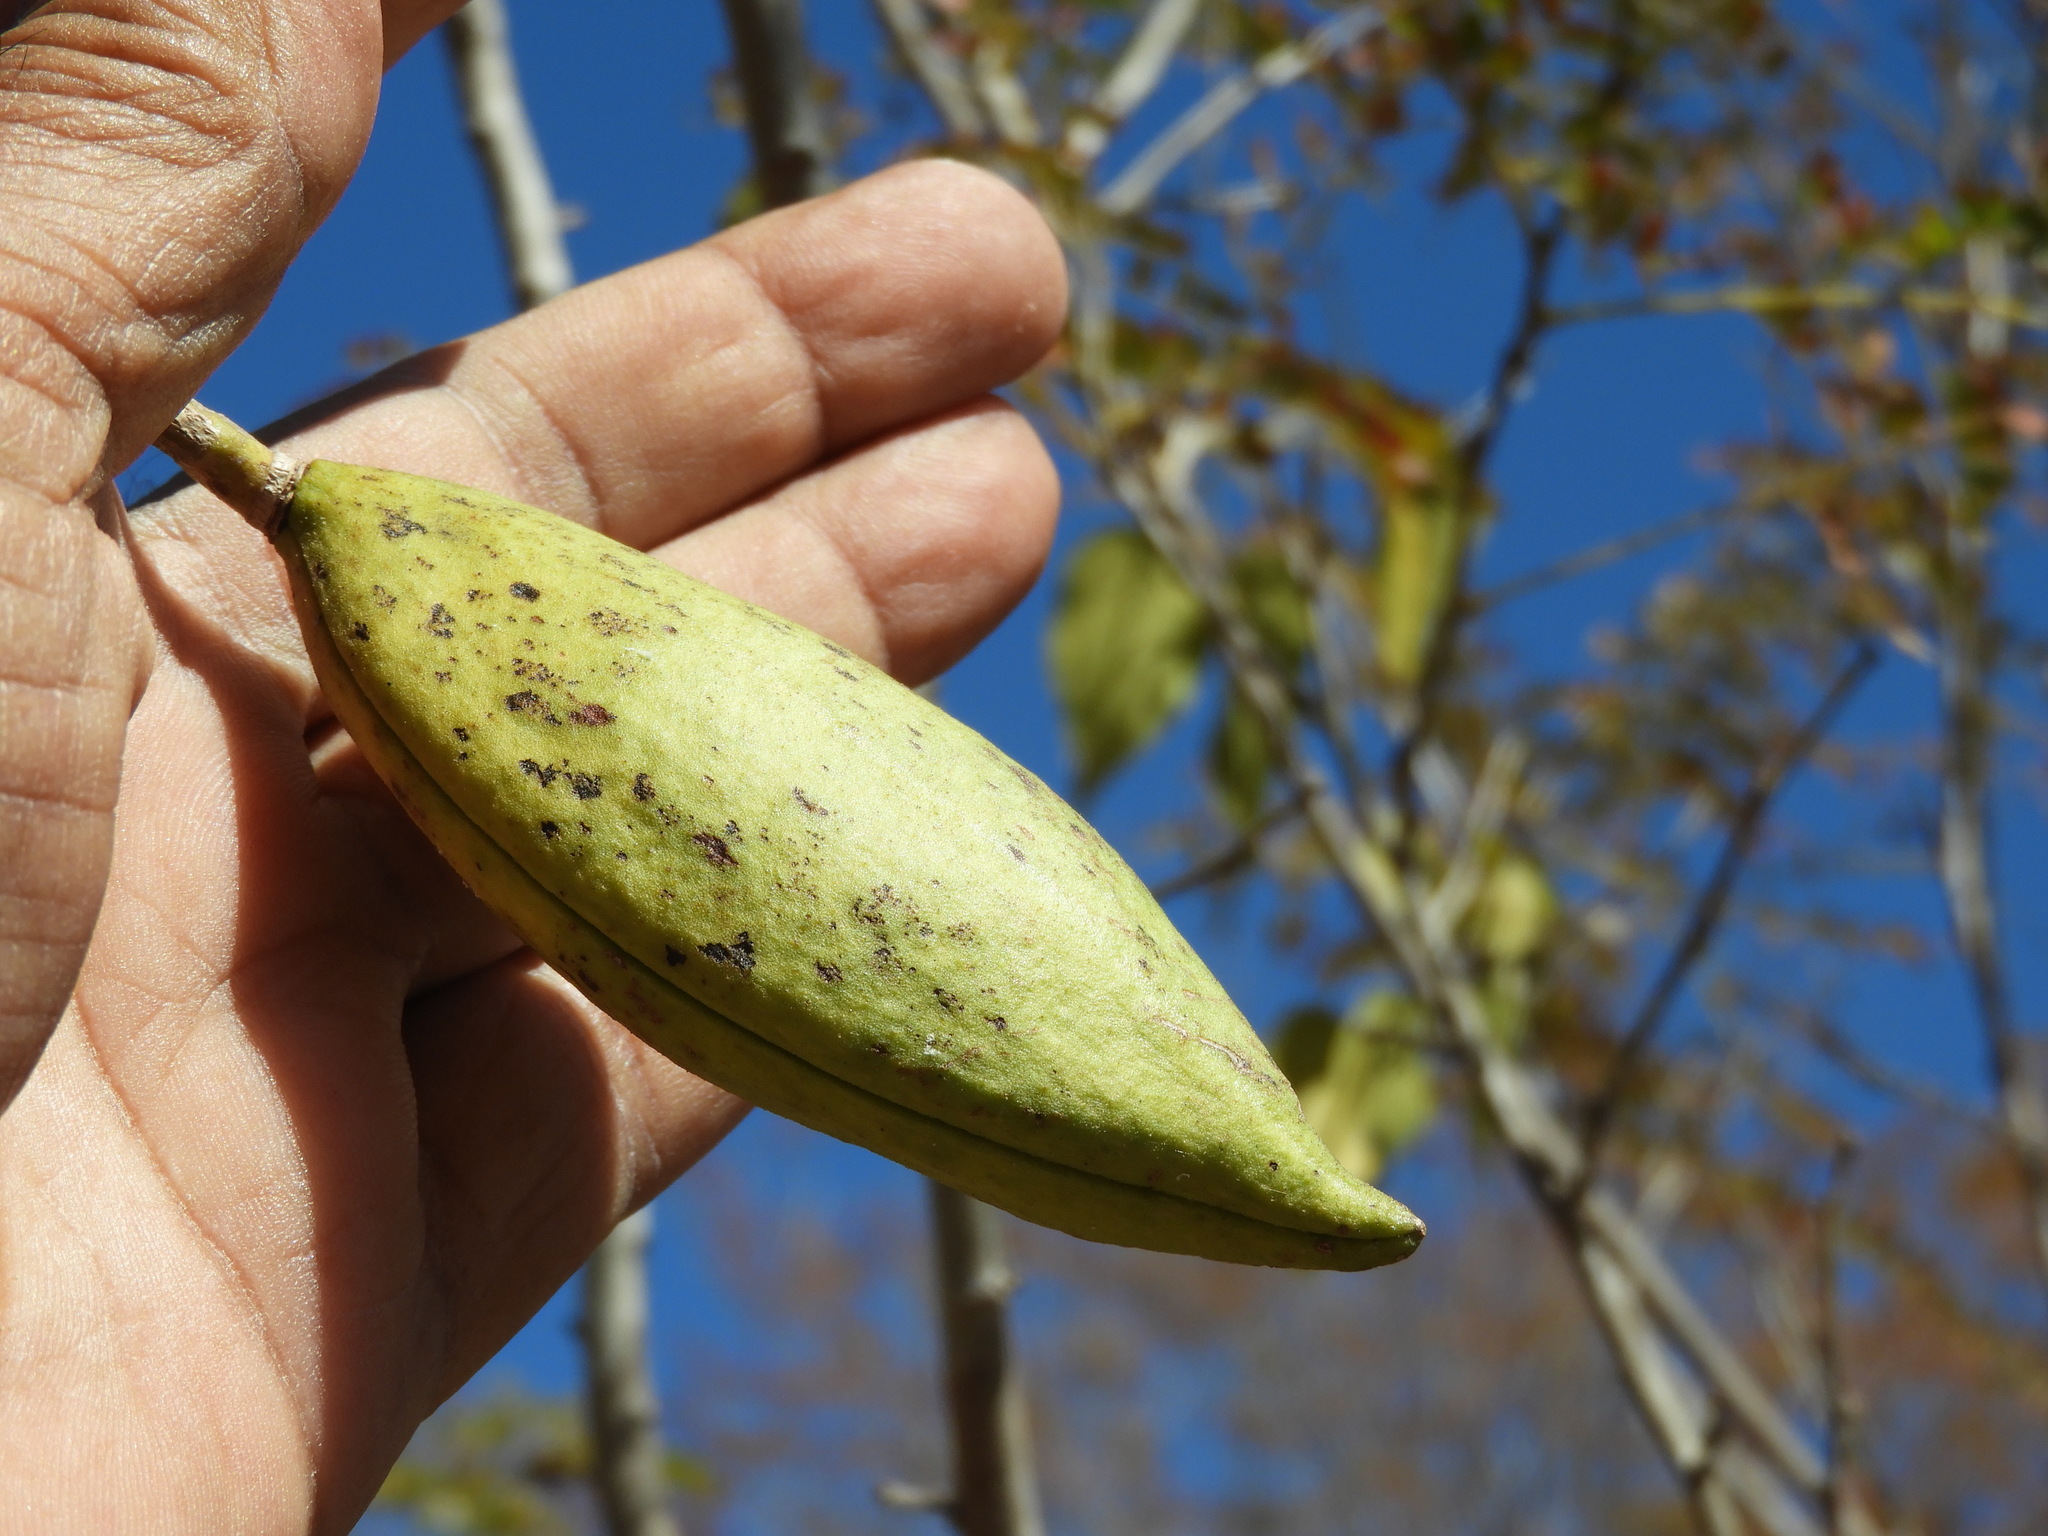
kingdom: Plantae
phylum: Tracheophyta
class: Magnoliopsida
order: Lamiales
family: Bignoniaceae
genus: Amphilophium
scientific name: Amphilophium paniculatum
